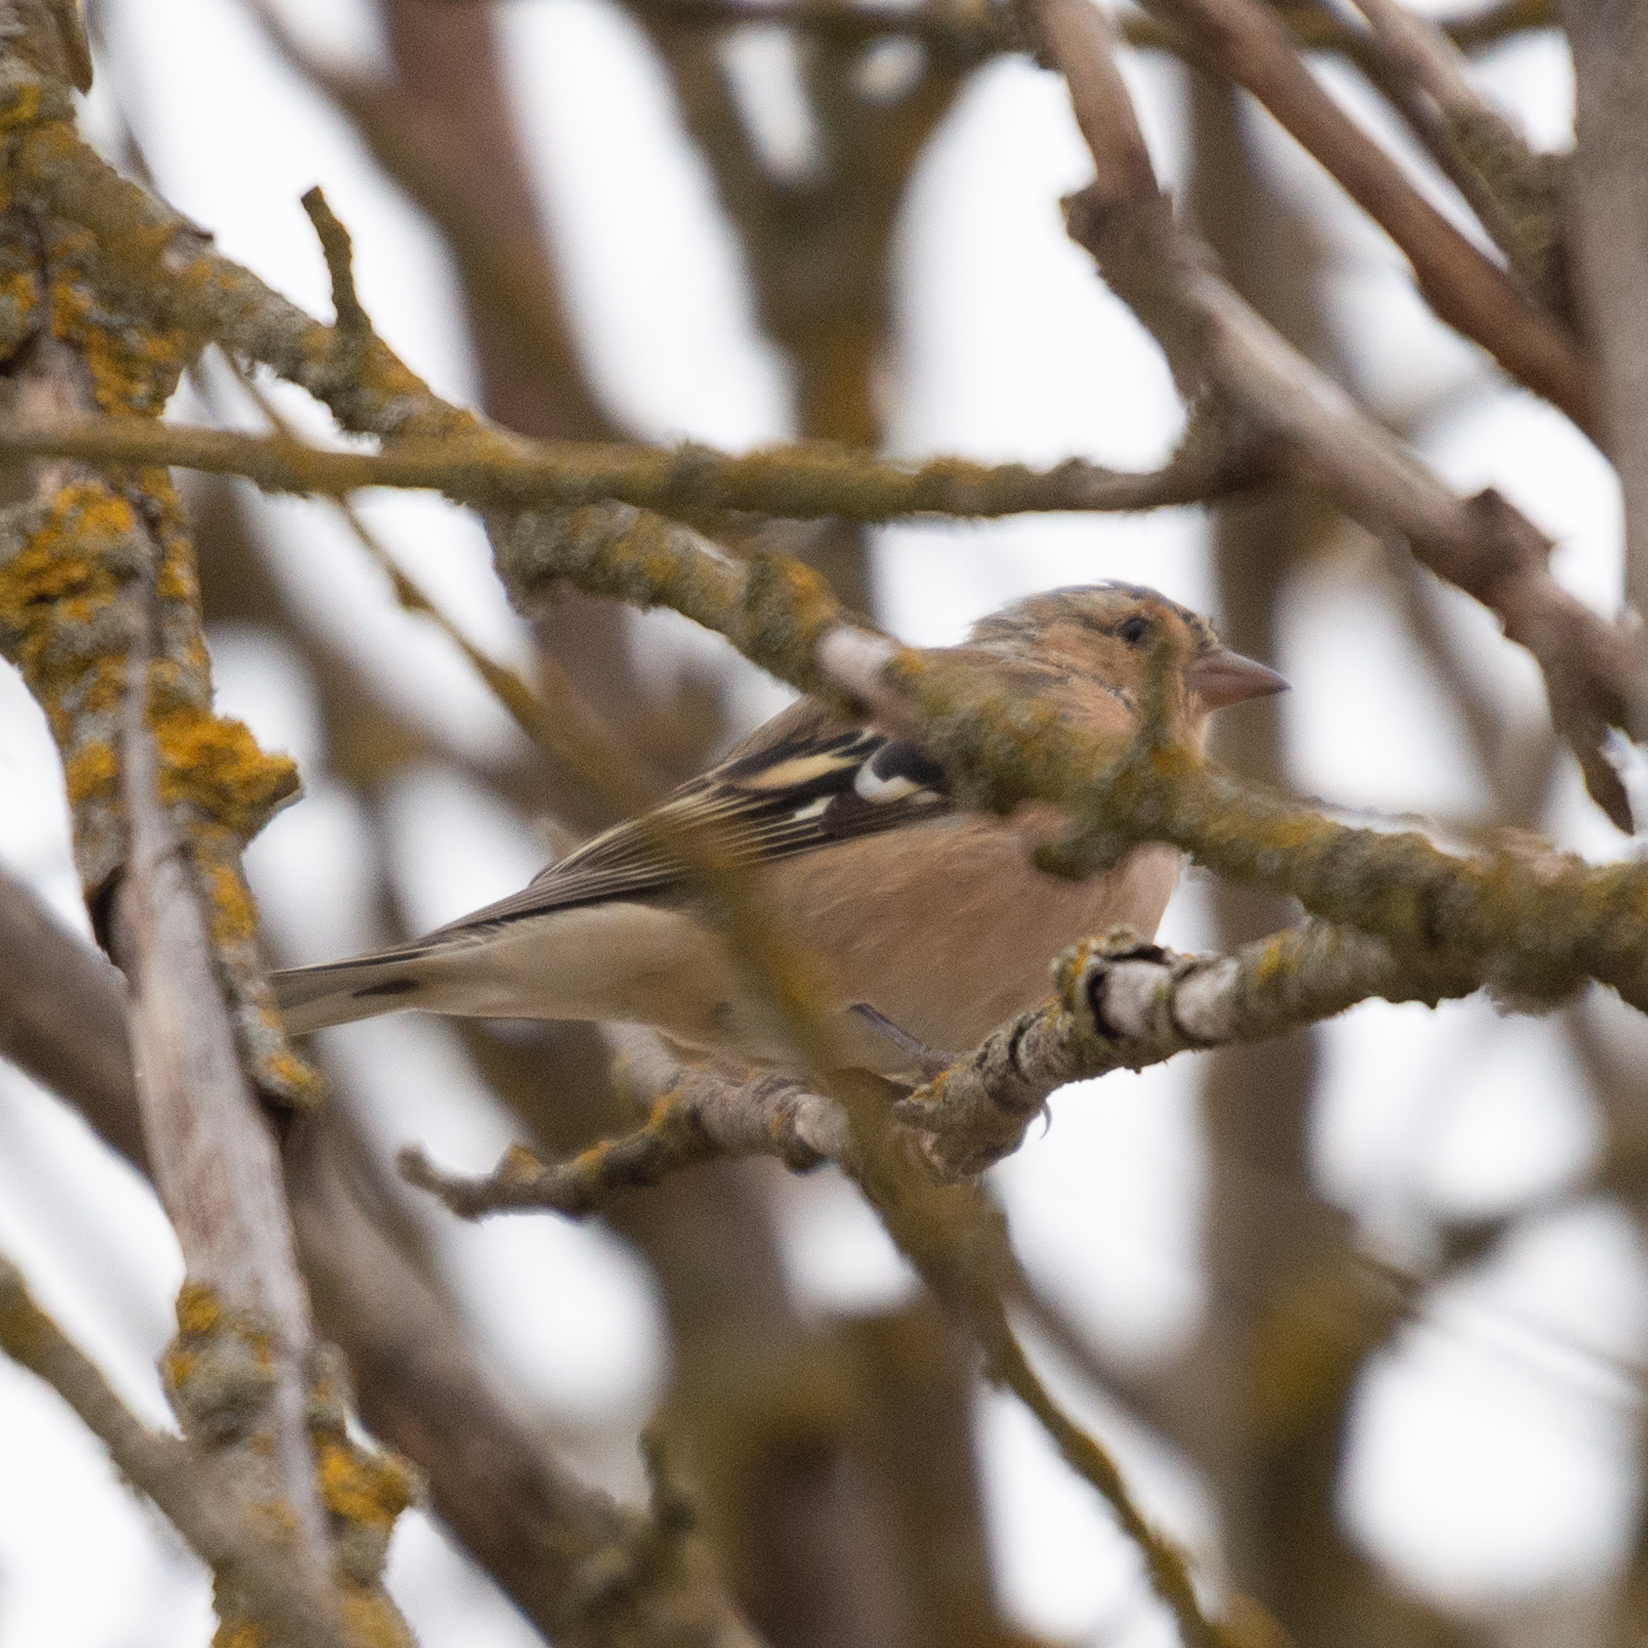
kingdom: Animalia
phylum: Chordata
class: Aves
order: Passeriformes
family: Fringillidae
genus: Fringilla
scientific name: Fringilla coelebs
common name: Common chaffinch
